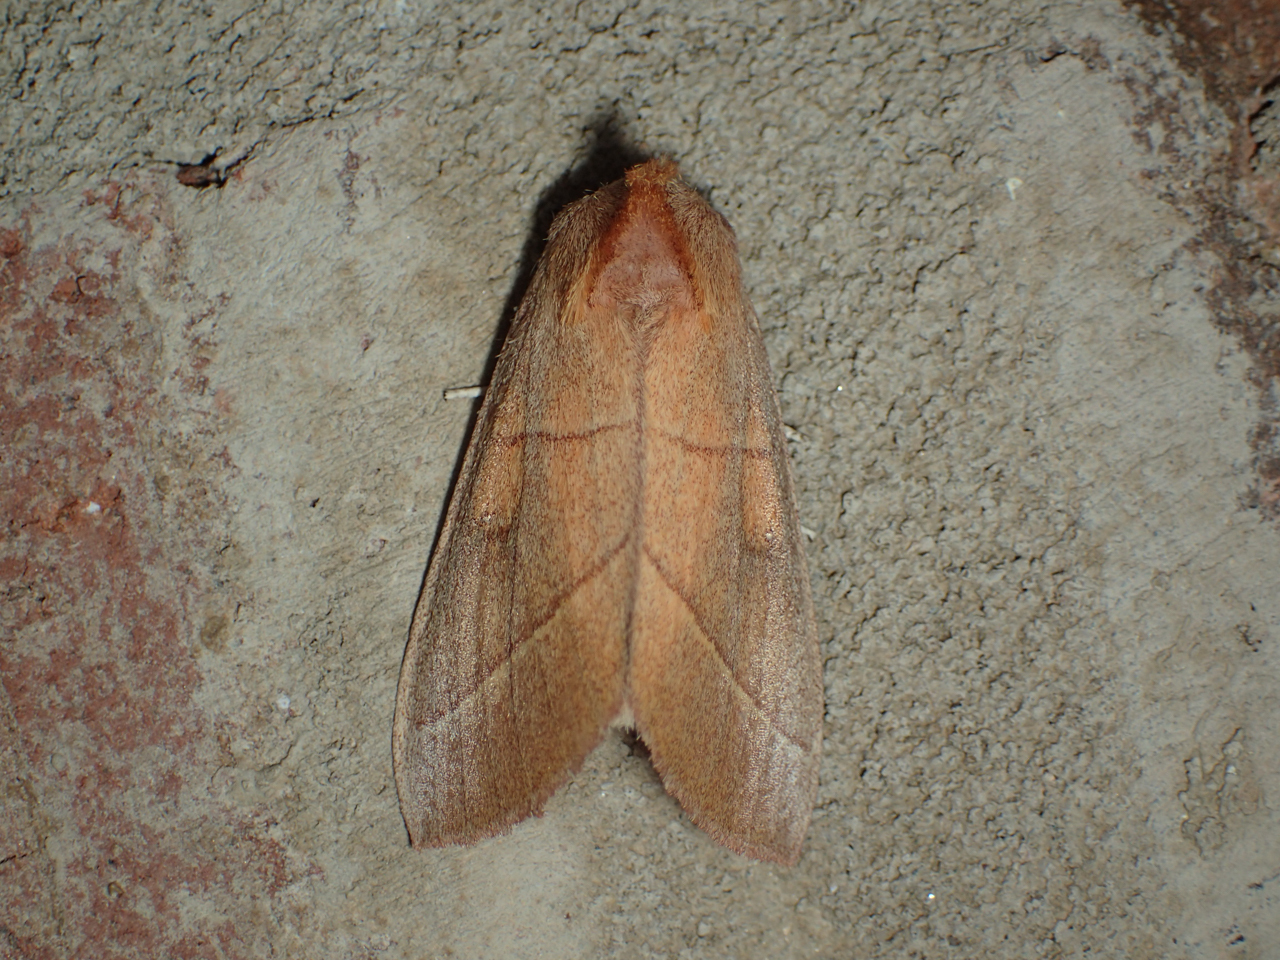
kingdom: Animalia
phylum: Arthropoda
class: Insecta
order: Lepidoptera
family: Notodontidae
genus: Nadata
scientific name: Nadata gibbosa
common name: White-dotted prominent
